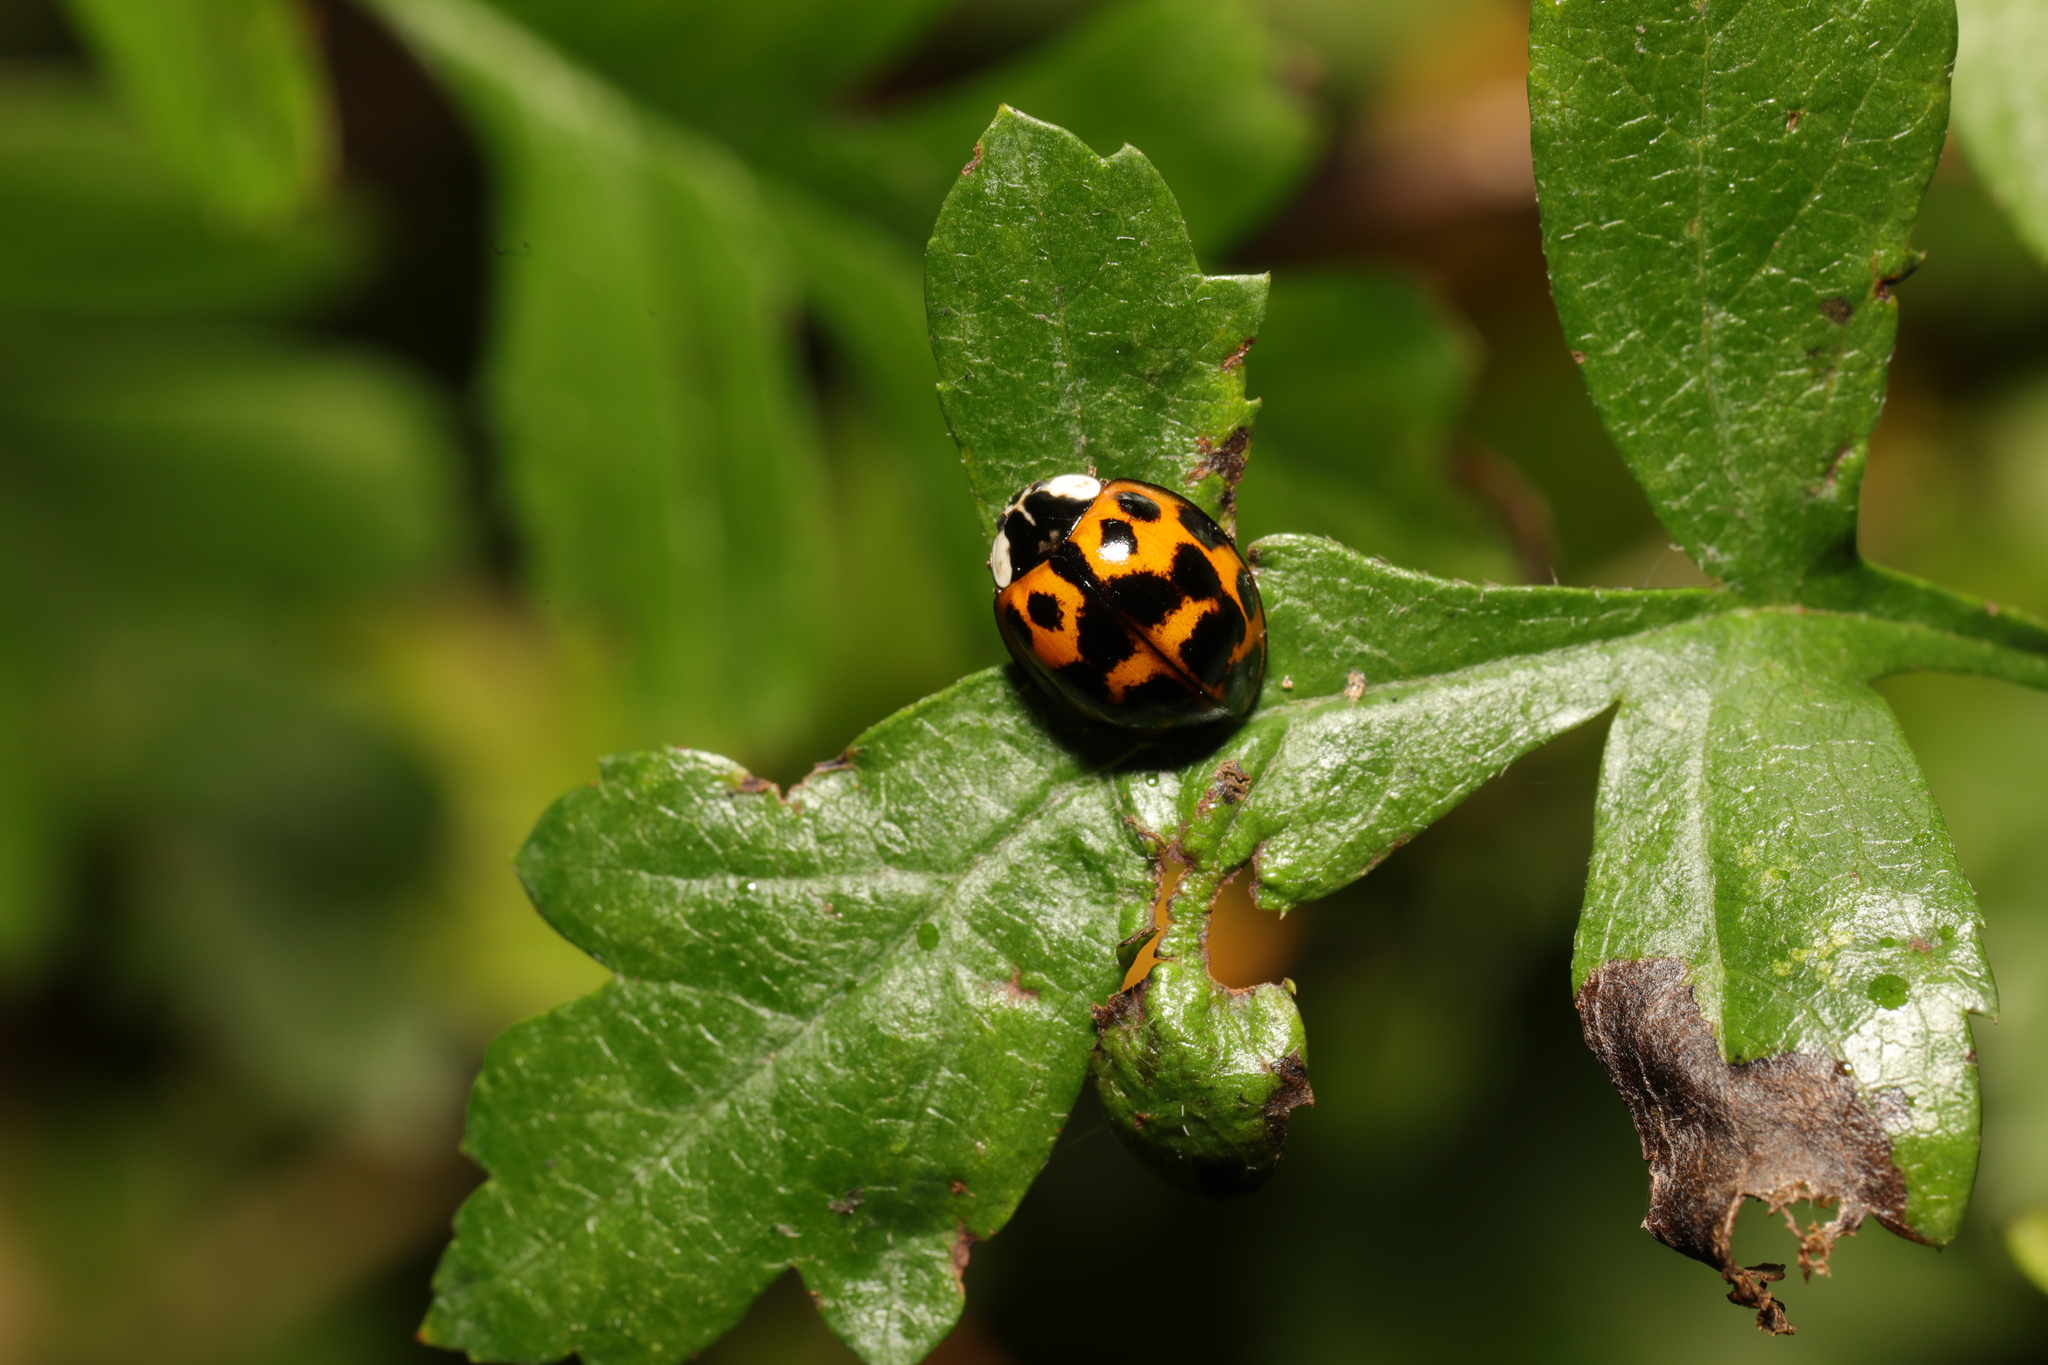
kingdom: Animalia
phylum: Arthropoda
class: Insecta
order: Coleoptera
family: Coccinellidae
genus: Harmonia
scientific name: Harmonia axyridis
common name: Harlequin ladybird
